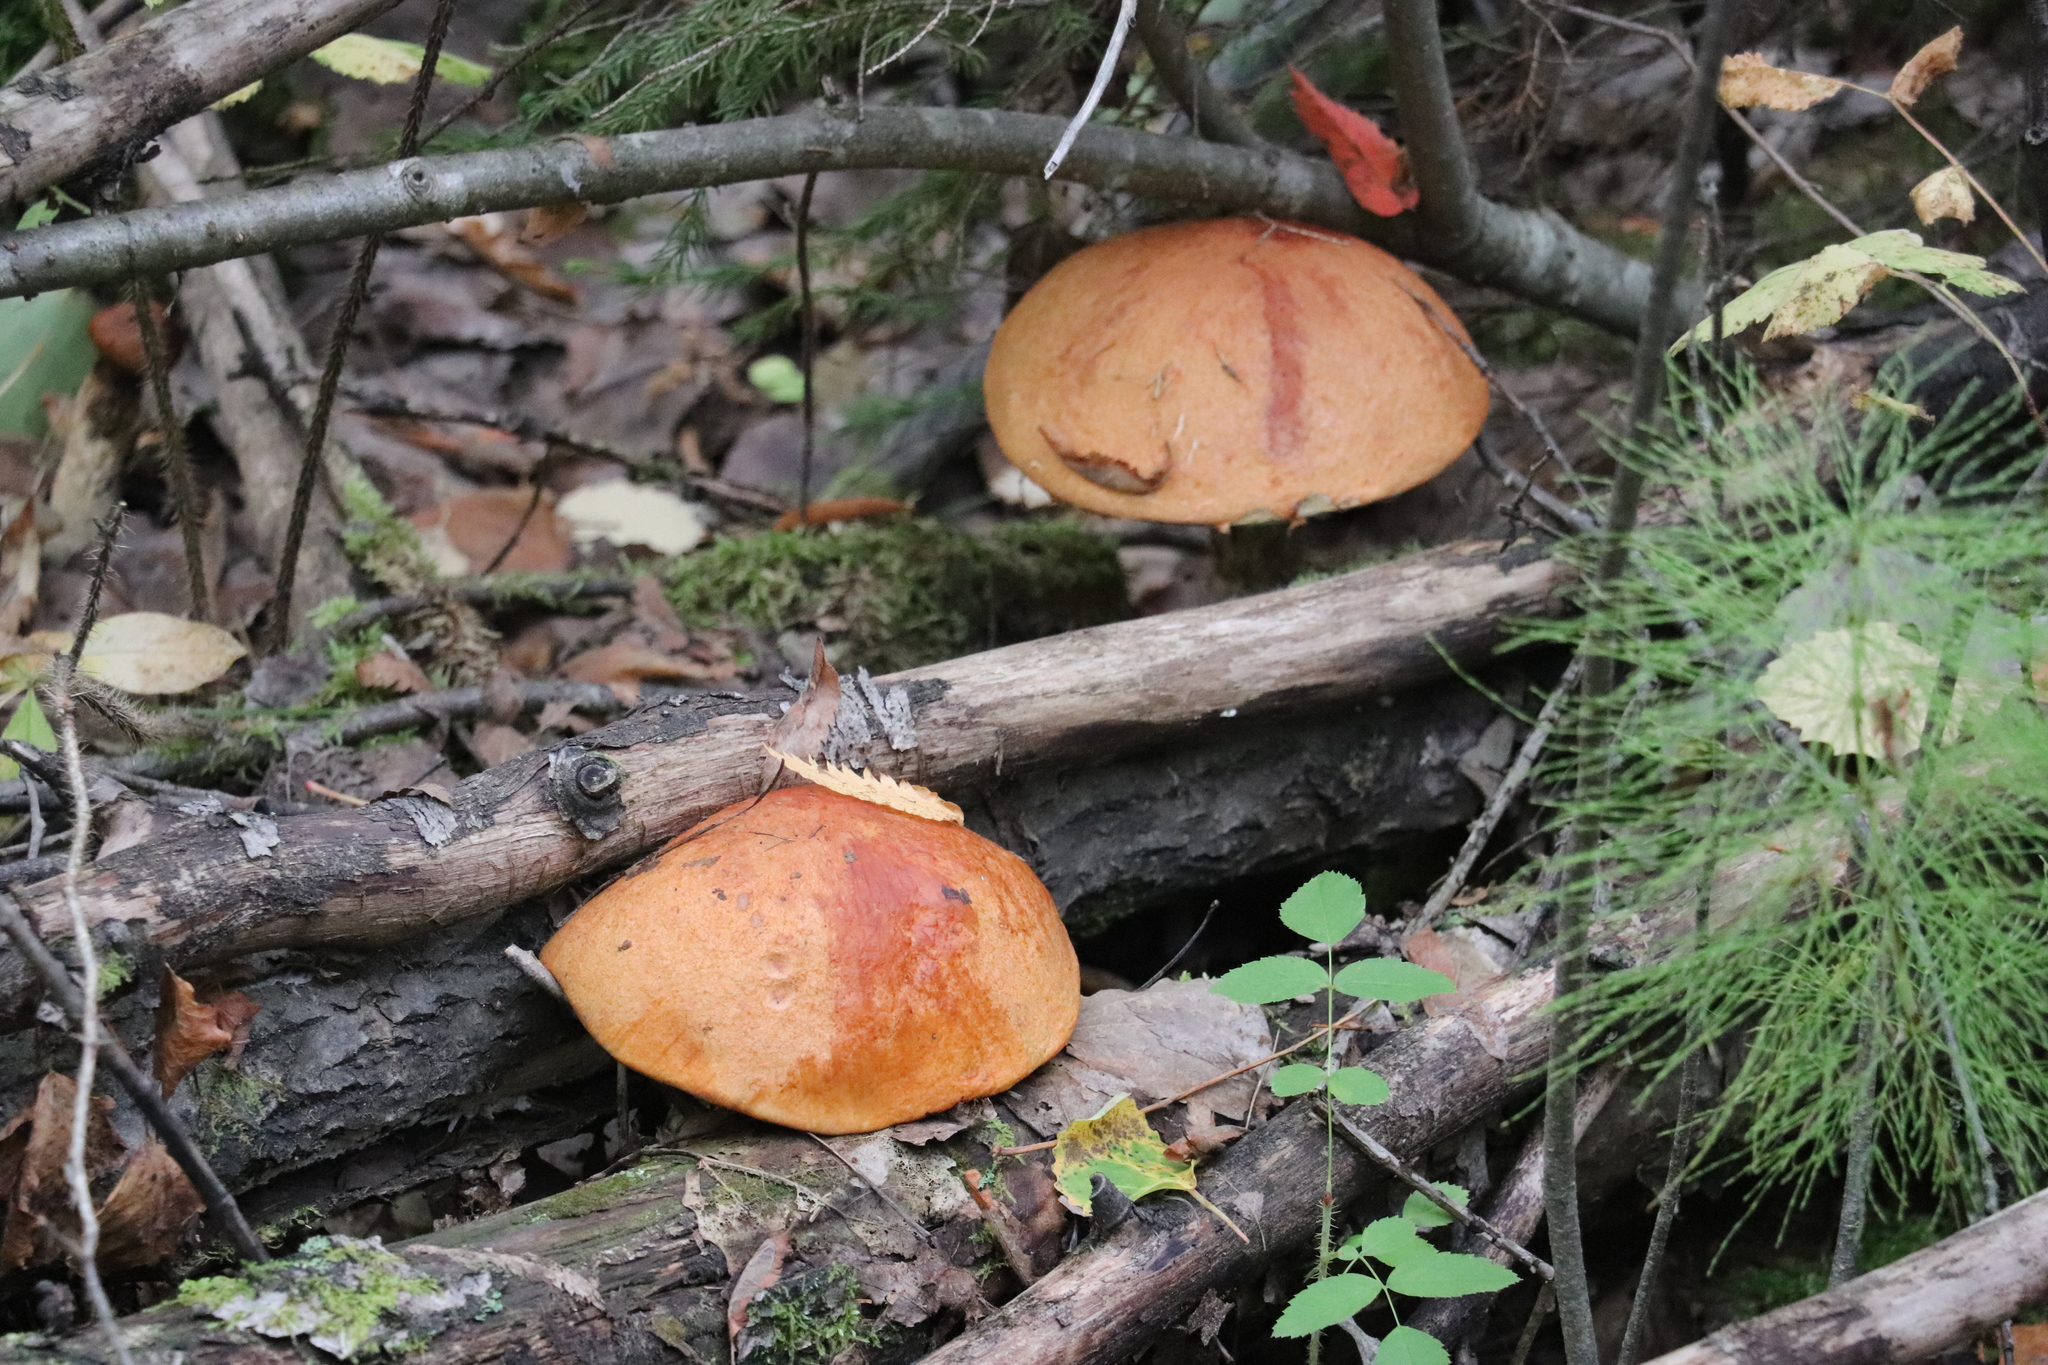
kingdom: Fungi
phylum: Basidiomycota
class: Agaricomycetes
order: Boletales
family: Boletaceae
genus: Leccinum
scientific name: Leccinum albostipitatum
